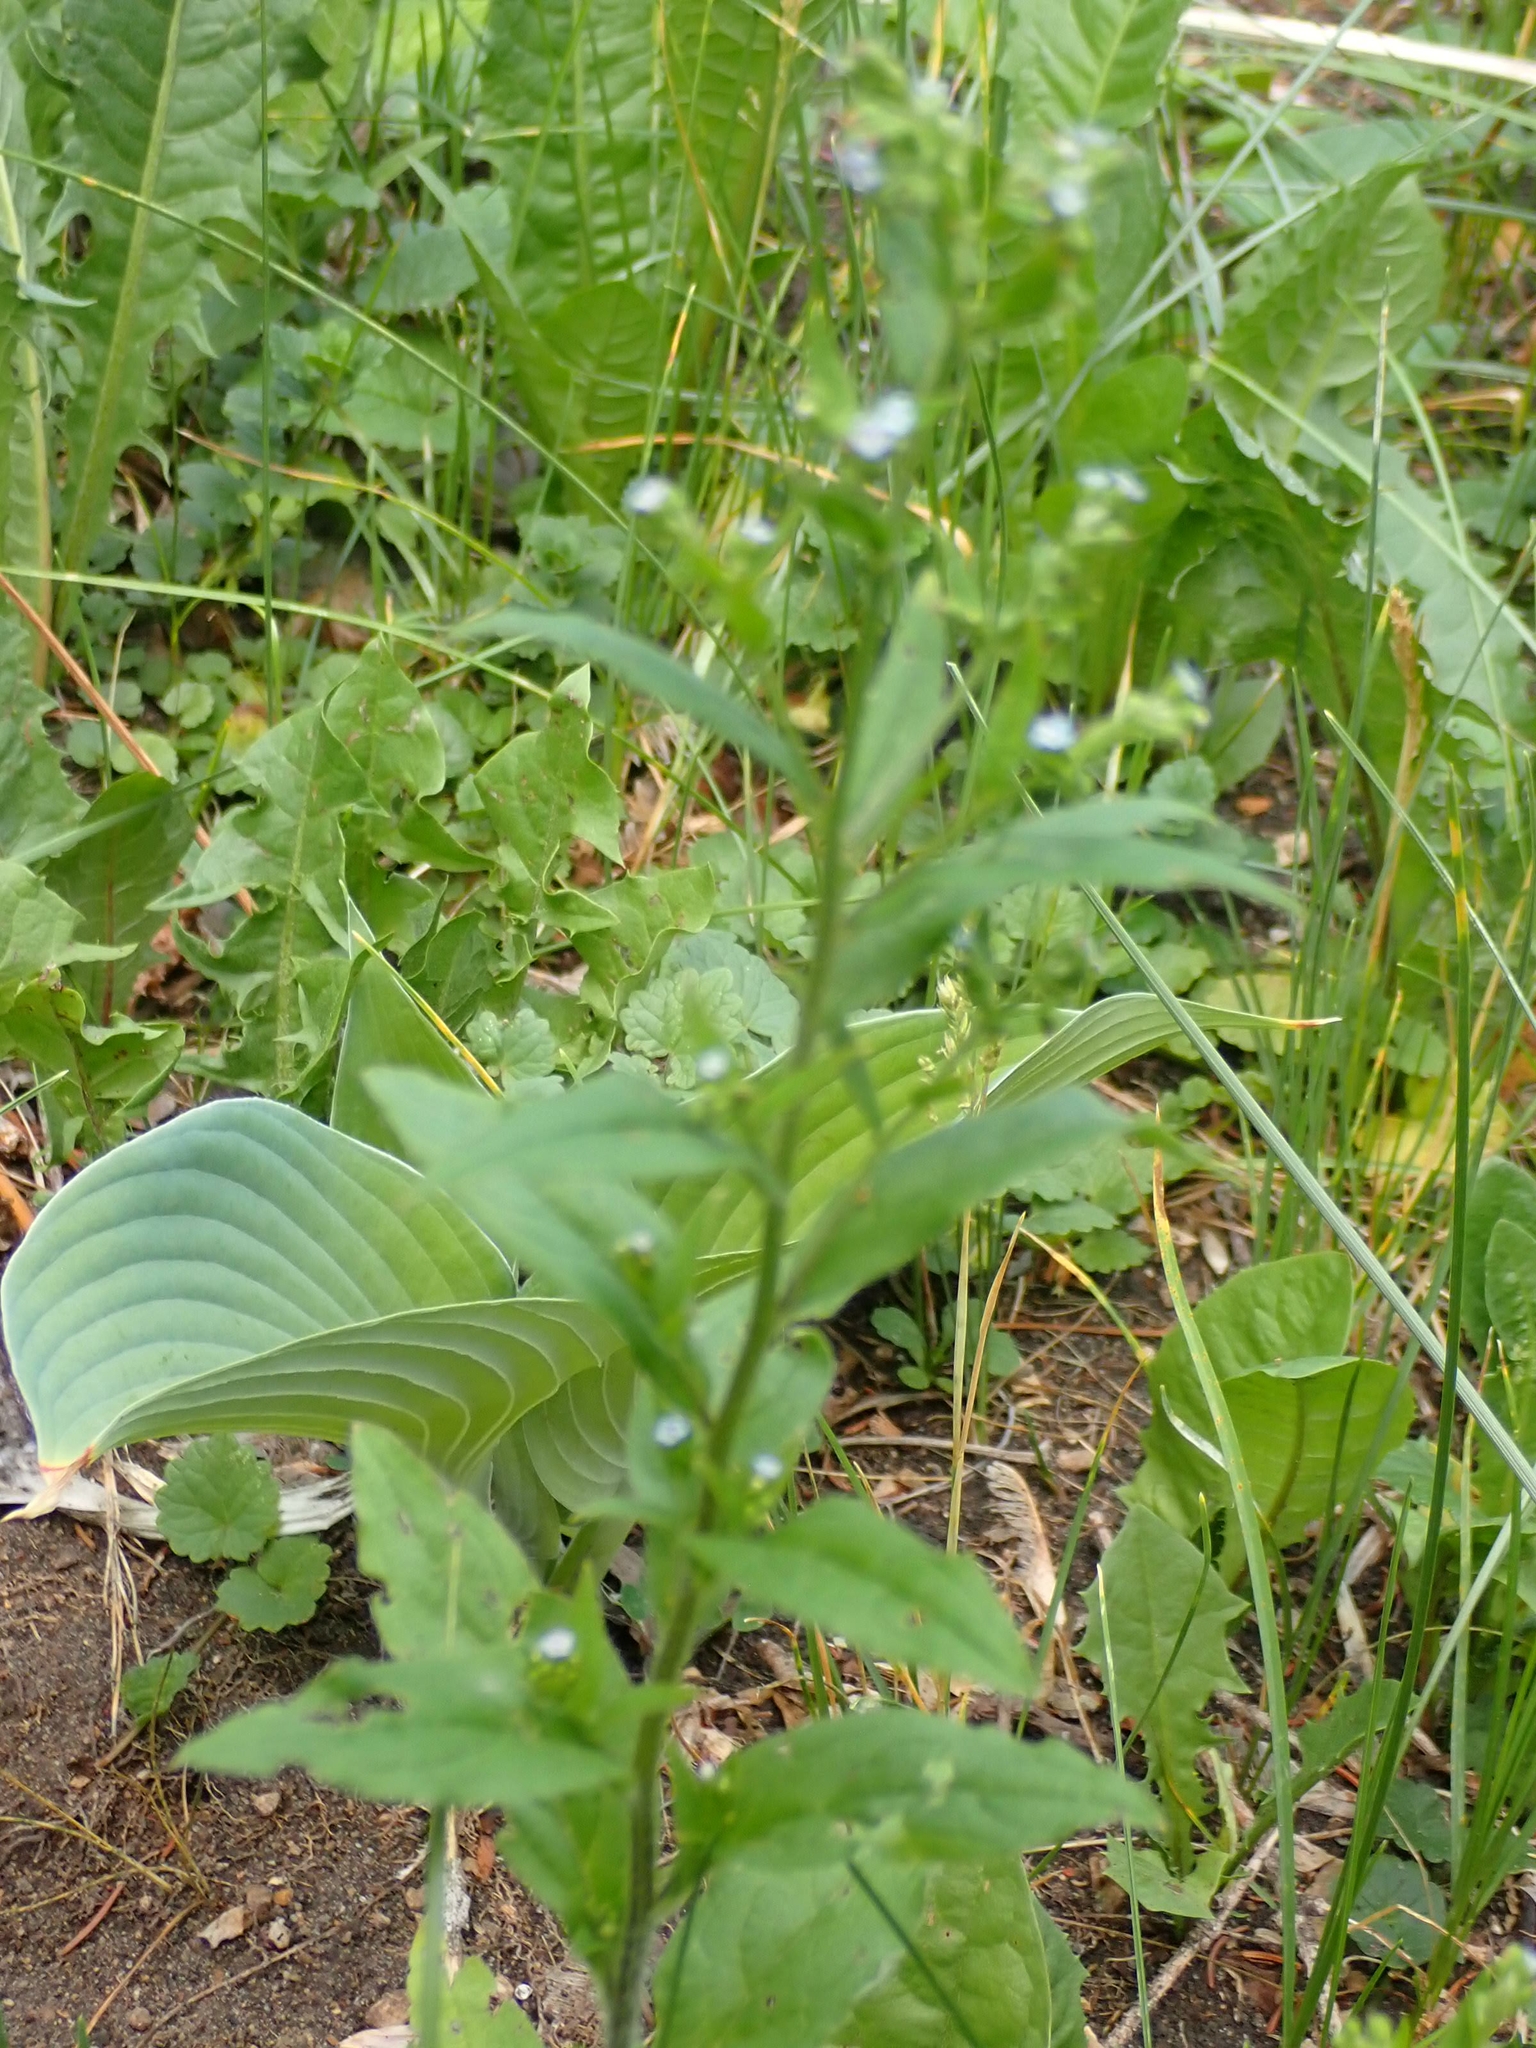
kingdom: Plantae
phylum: Tracheophyta
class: Magnoliopsida
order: Boraginales
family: Boraginaceae
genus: Hackelia
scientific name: Hackelia deflexa
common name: Nodding stickseed
